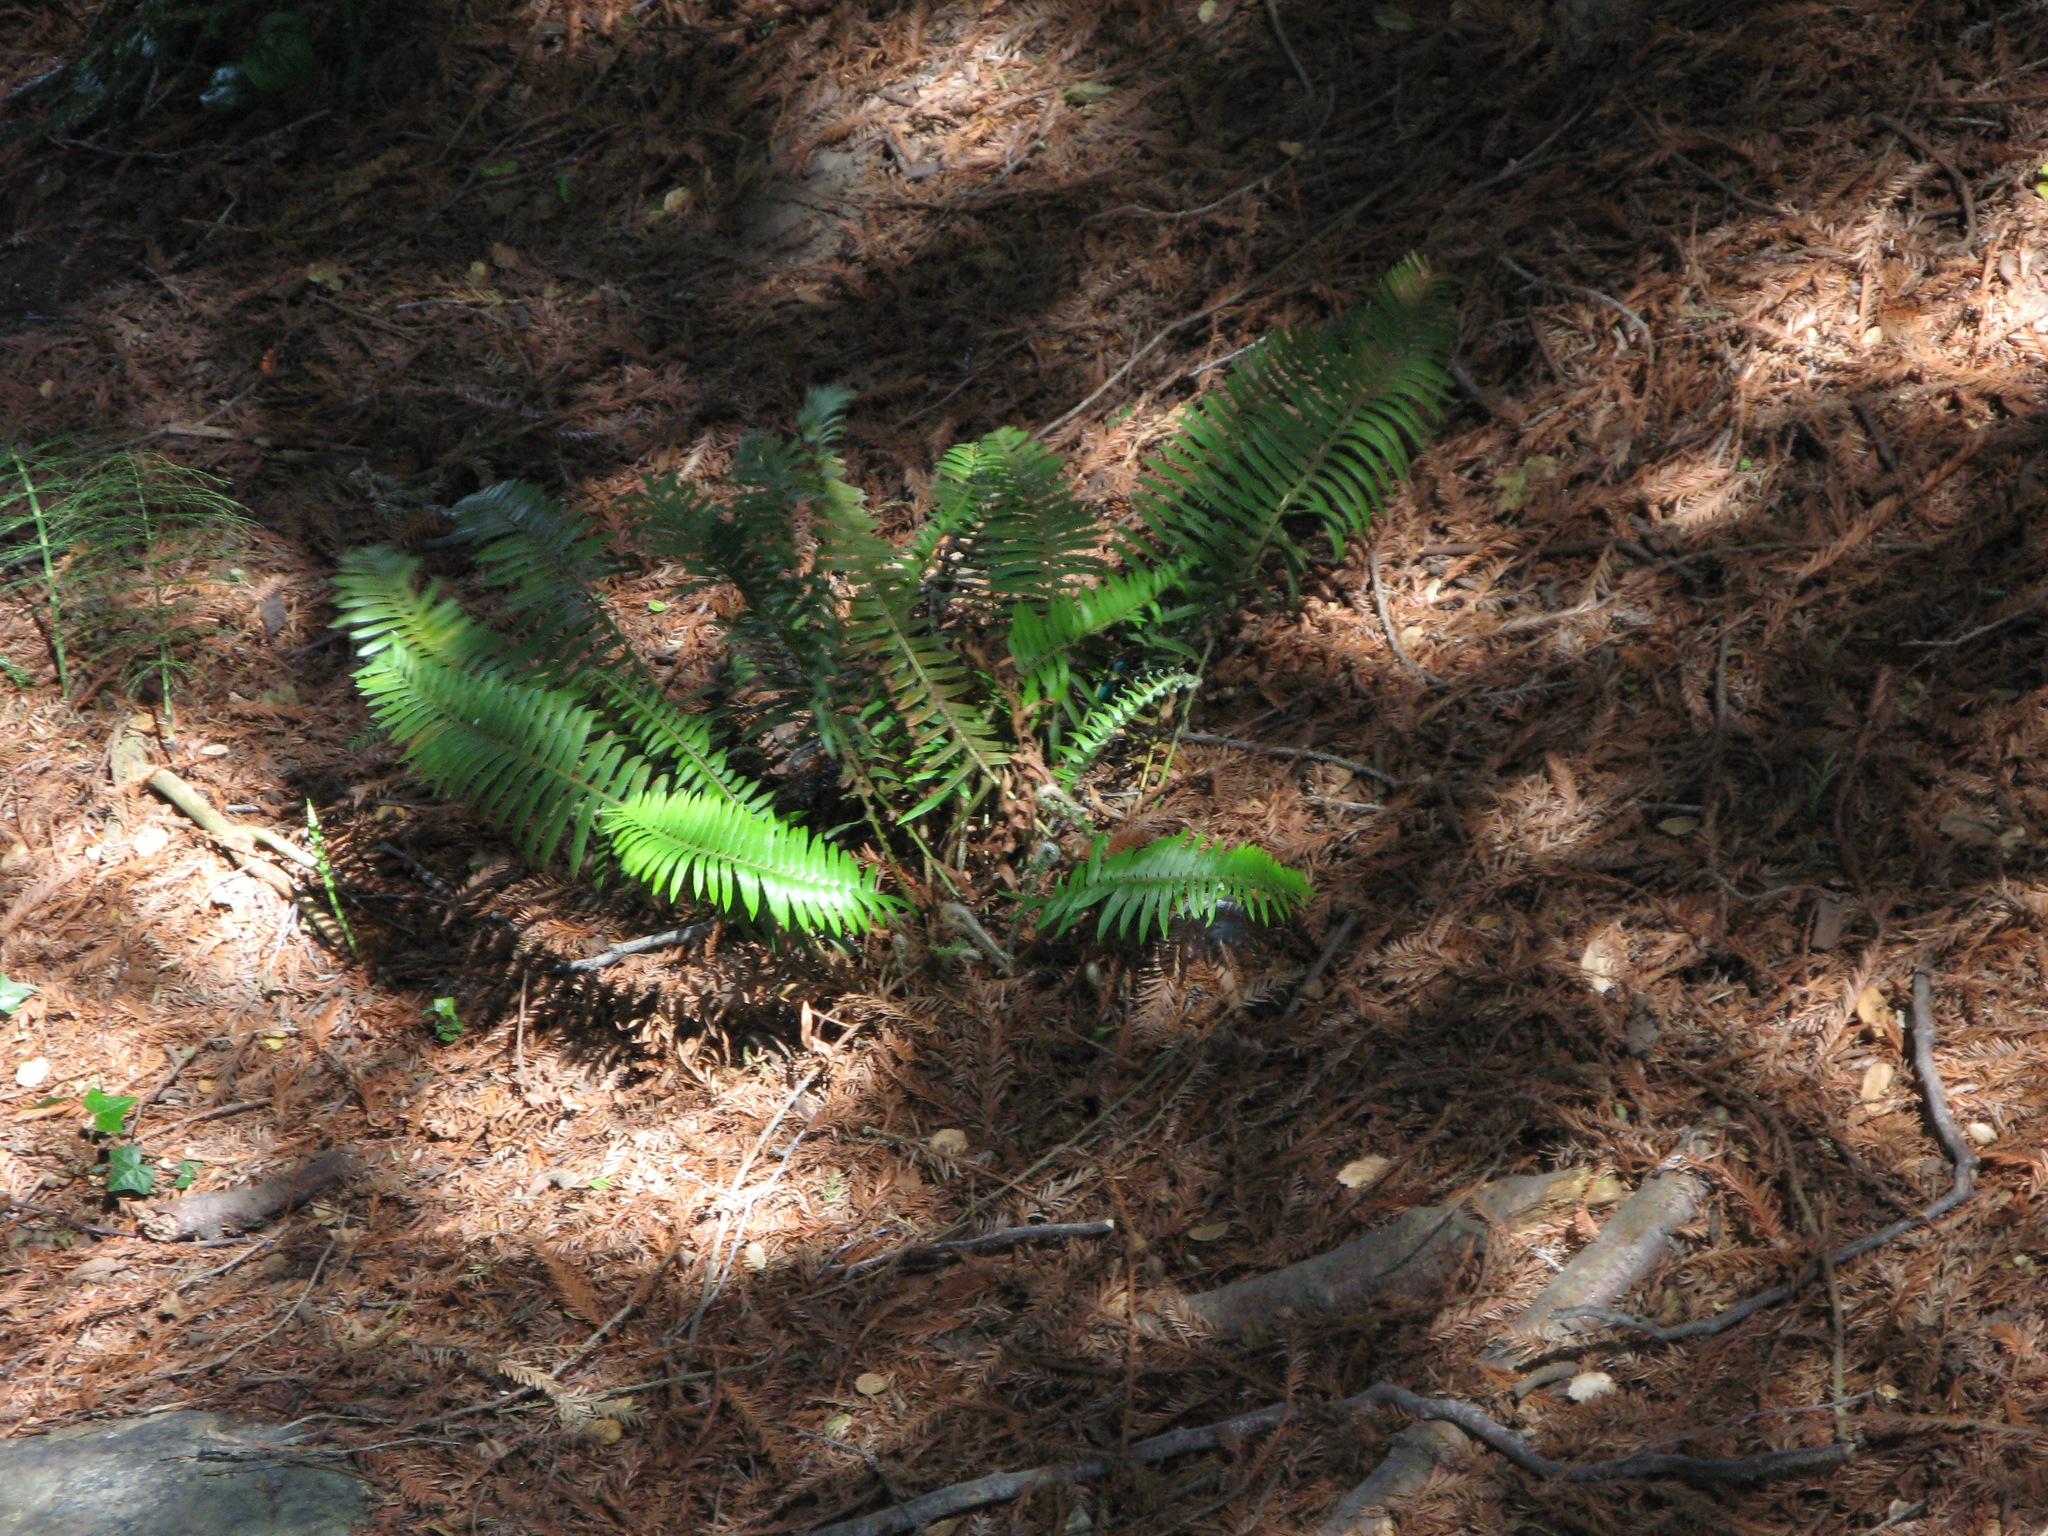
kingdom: Plantae
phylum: Tracheophyta
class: Polypodiopsida
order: Polypodiales
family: Dryopteridaceae
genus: Polystichum
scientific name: Polystichum munitum
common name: Western sword-fern
